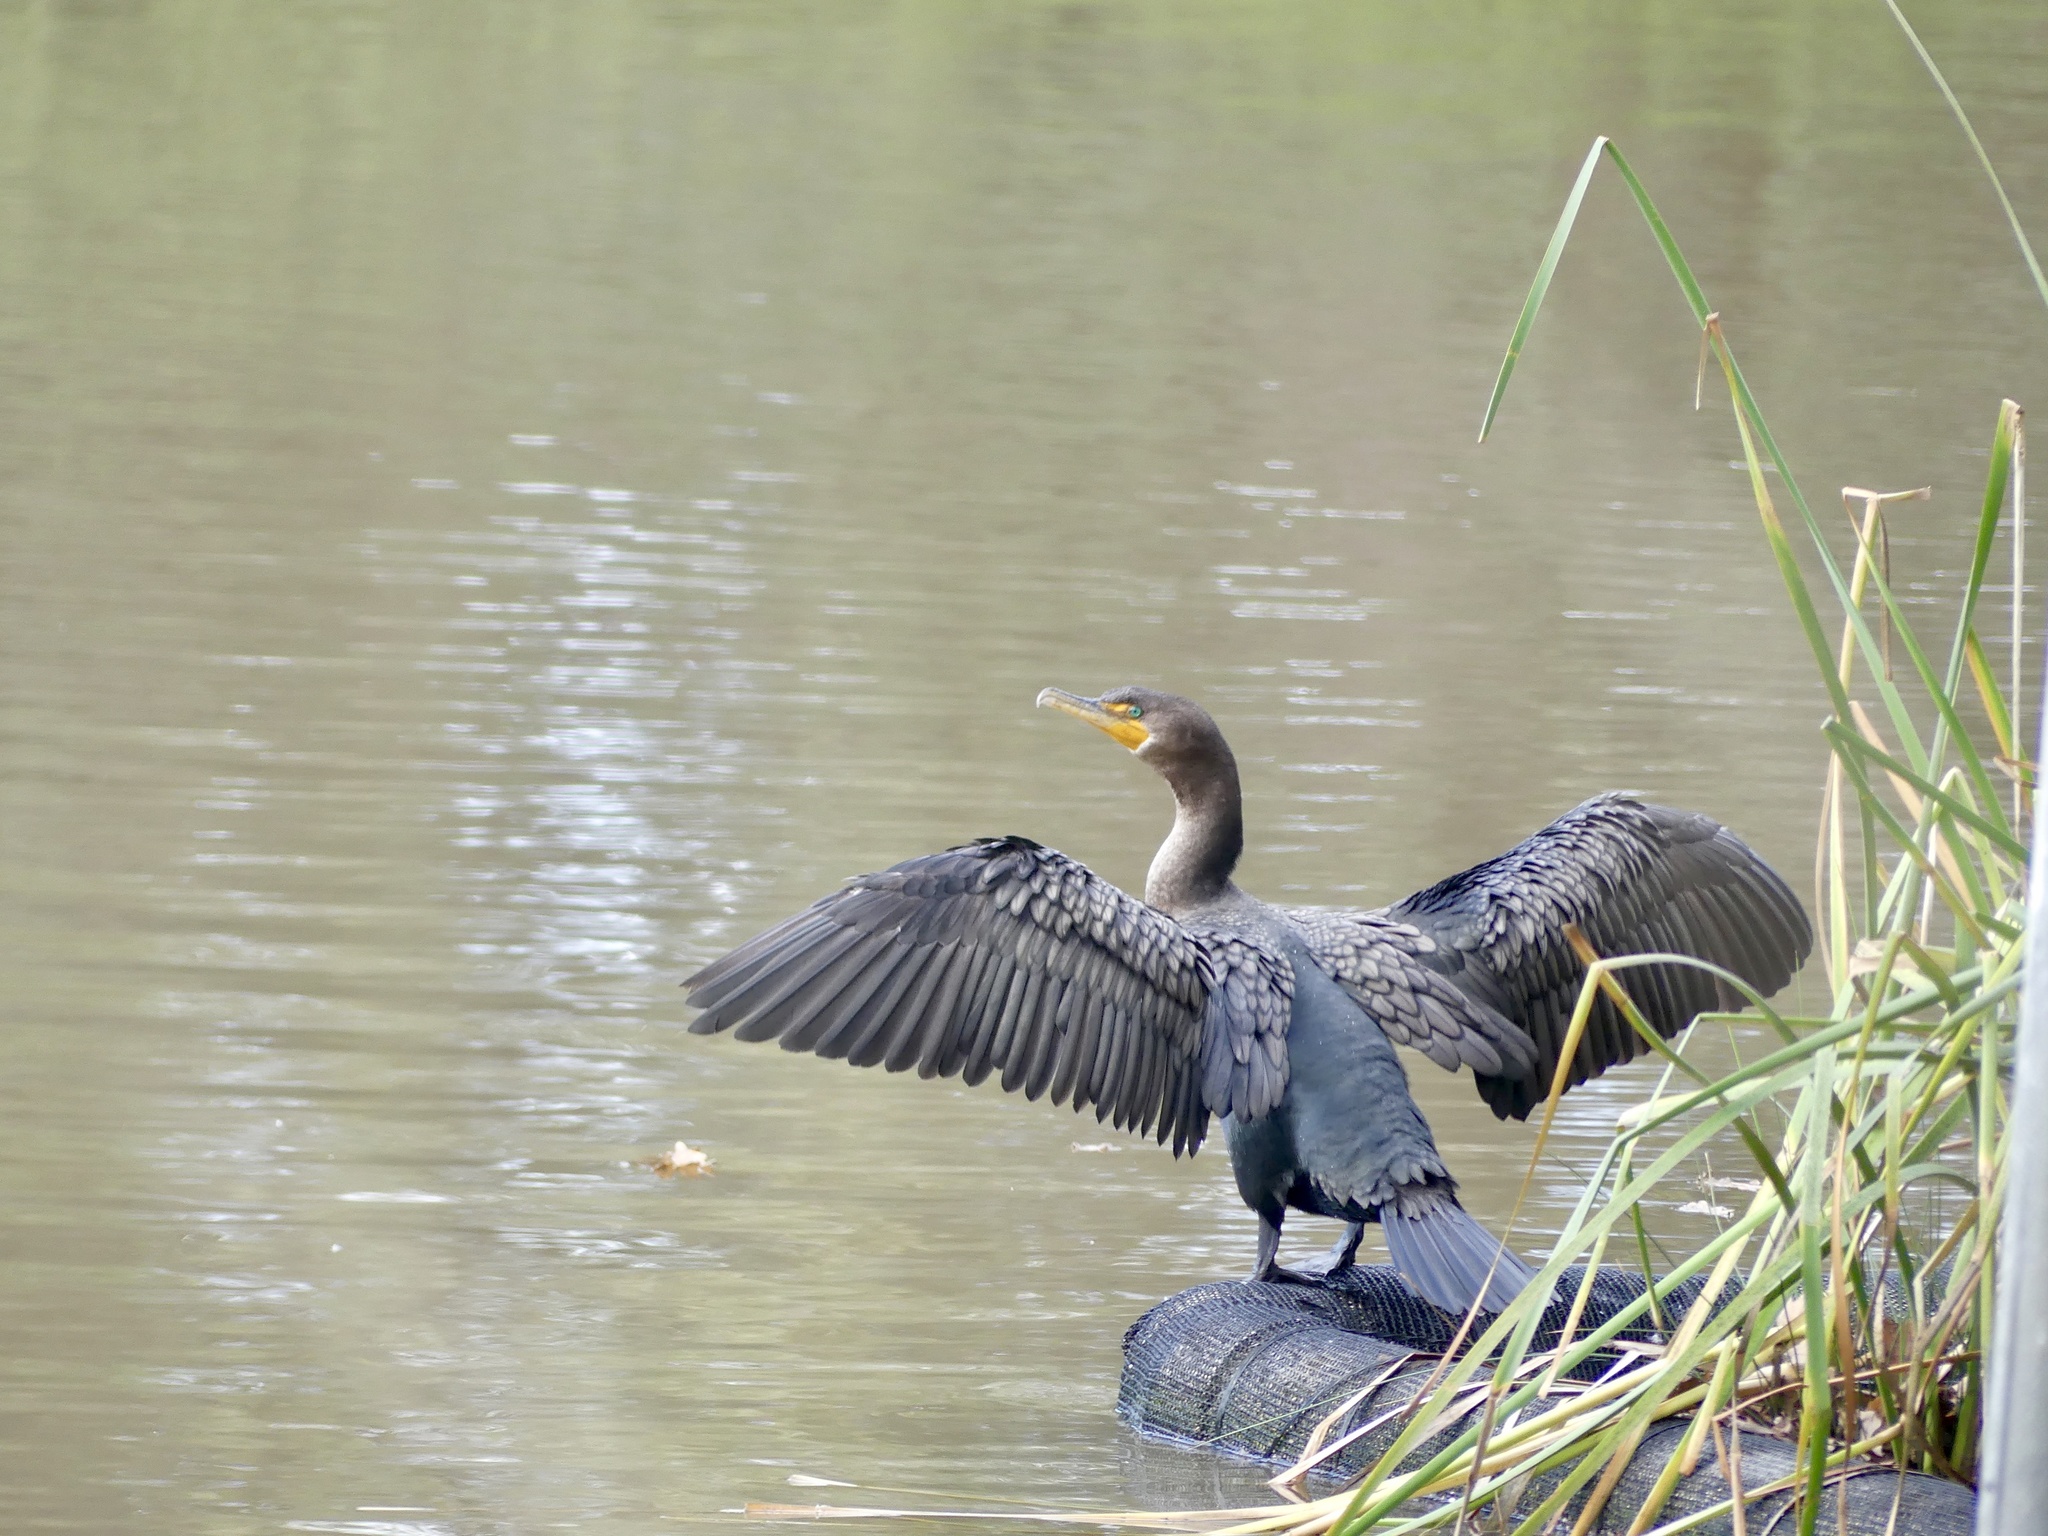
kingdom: Animalia
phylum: Chordata
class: Aves
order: Suliformes
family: Phalacrocoracidae
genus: Phalacrocorax
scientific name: Phalacrocorax auritus
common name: Double-crested cormorant
